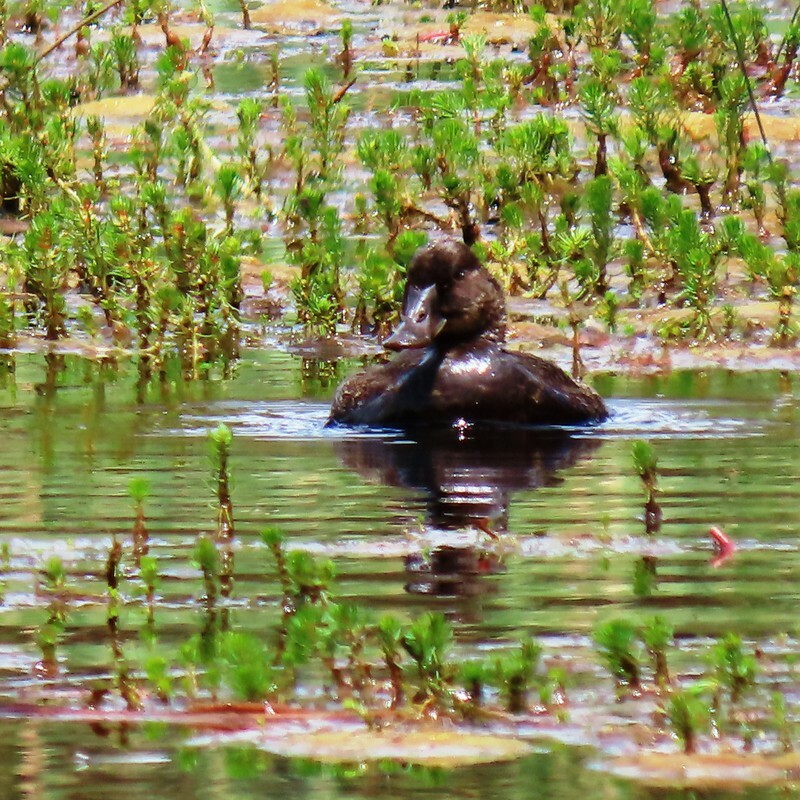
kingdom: Animalia
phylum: Chordata
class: Aves
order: Anseriformes
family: Anatidae
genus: Biziura
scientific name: Biziura lobata
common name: Musk duck
